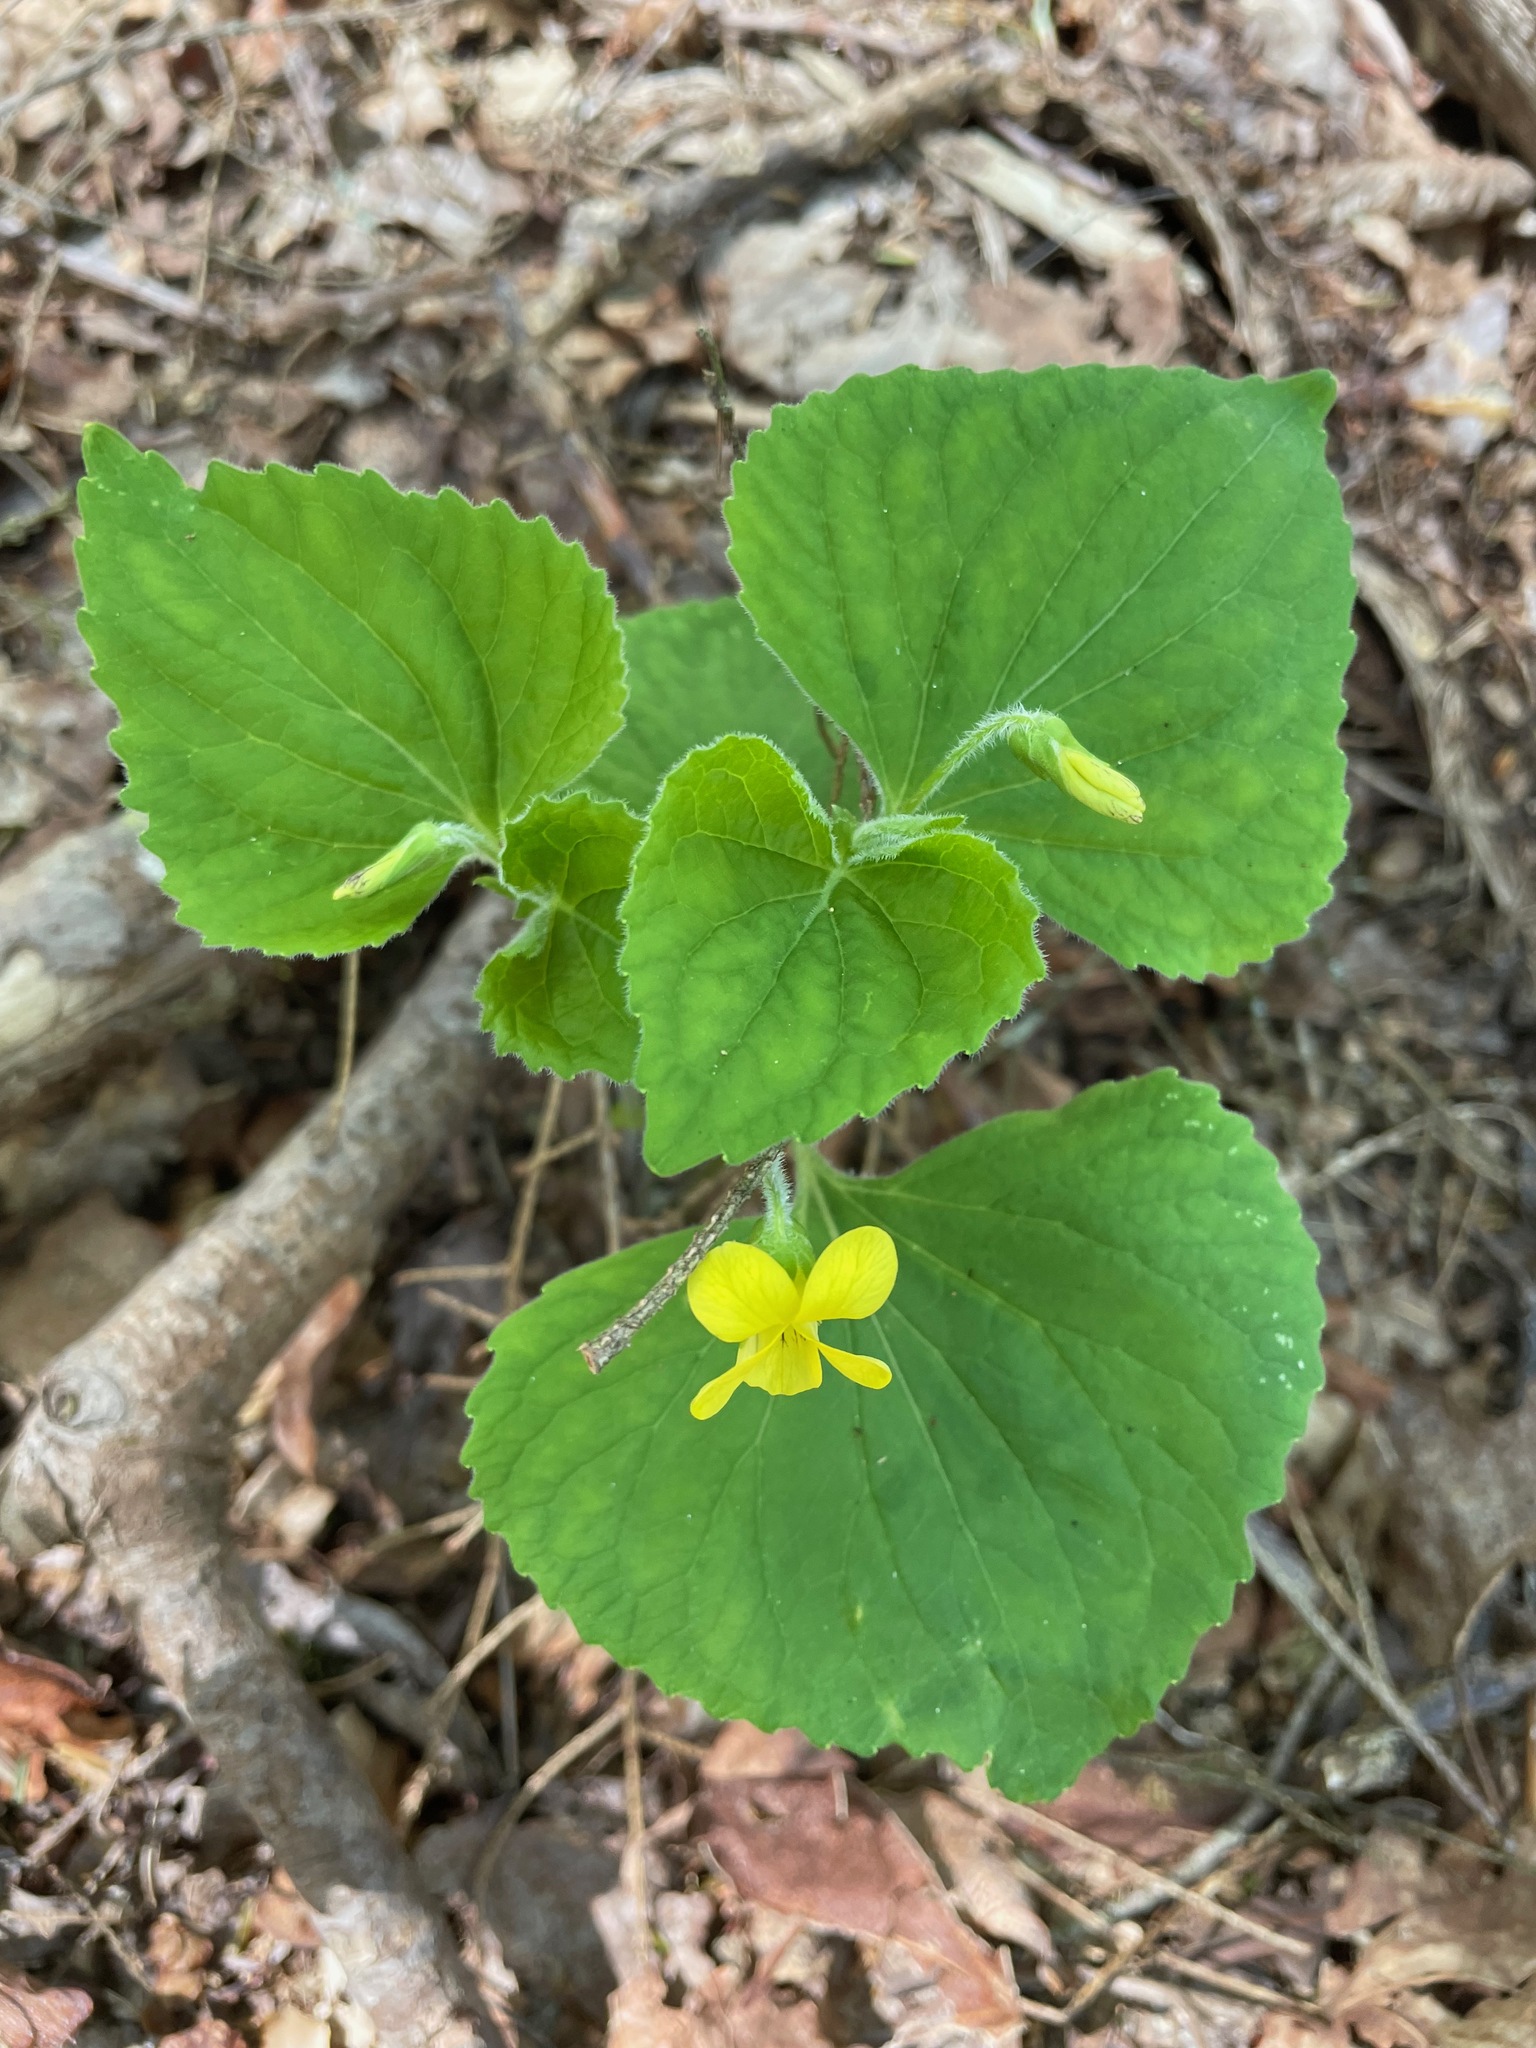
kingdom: Plantae
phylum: Tracheophyta
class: Magnoliopsida
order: Malpighiales
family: Violaceae
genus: Viola
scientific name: Viola pubescens
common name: Yellow forest violet
